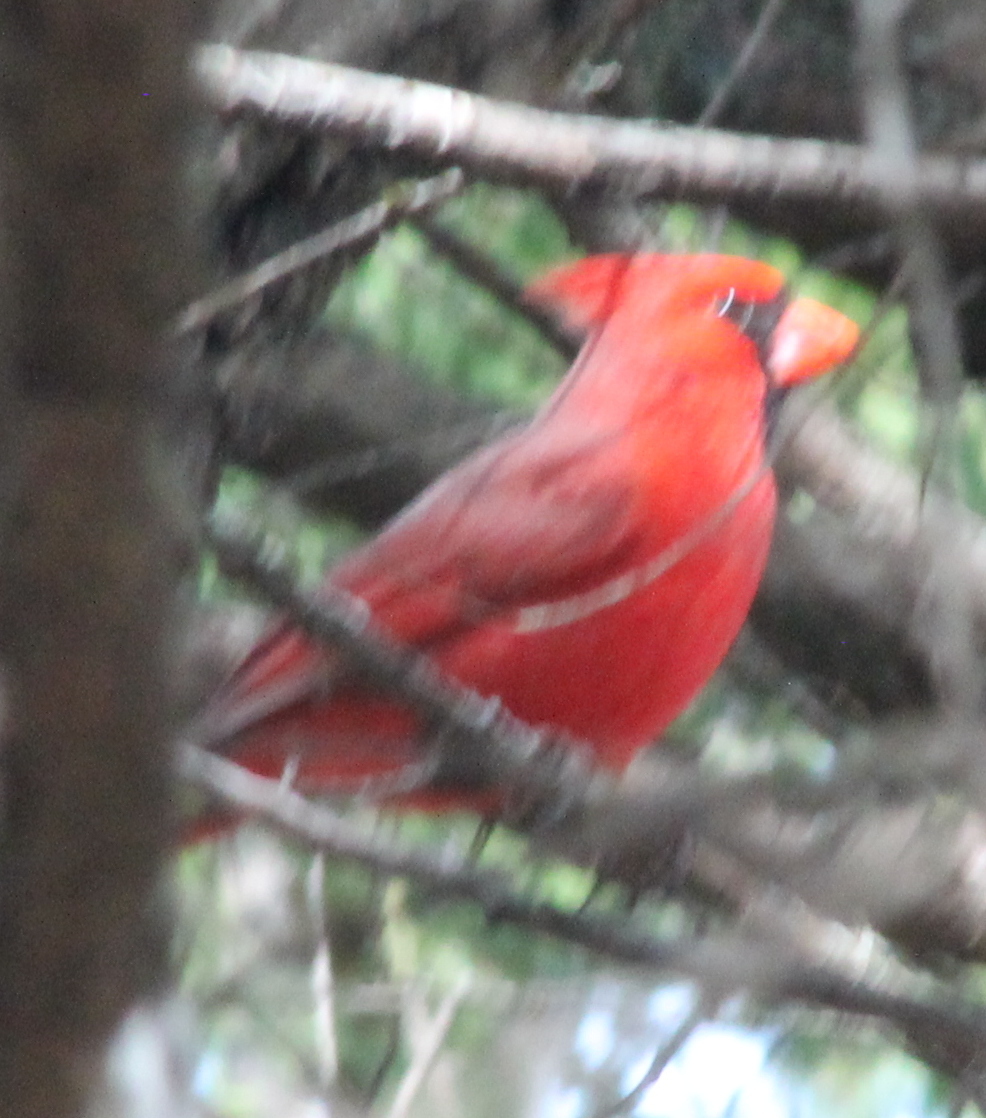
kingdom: Animalia
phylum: Chordata
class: Aves
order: Passeriformes
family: Cardinalidae
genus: Cardinalis
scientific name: Cardinalis cardinalis
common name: Northern cardinal
